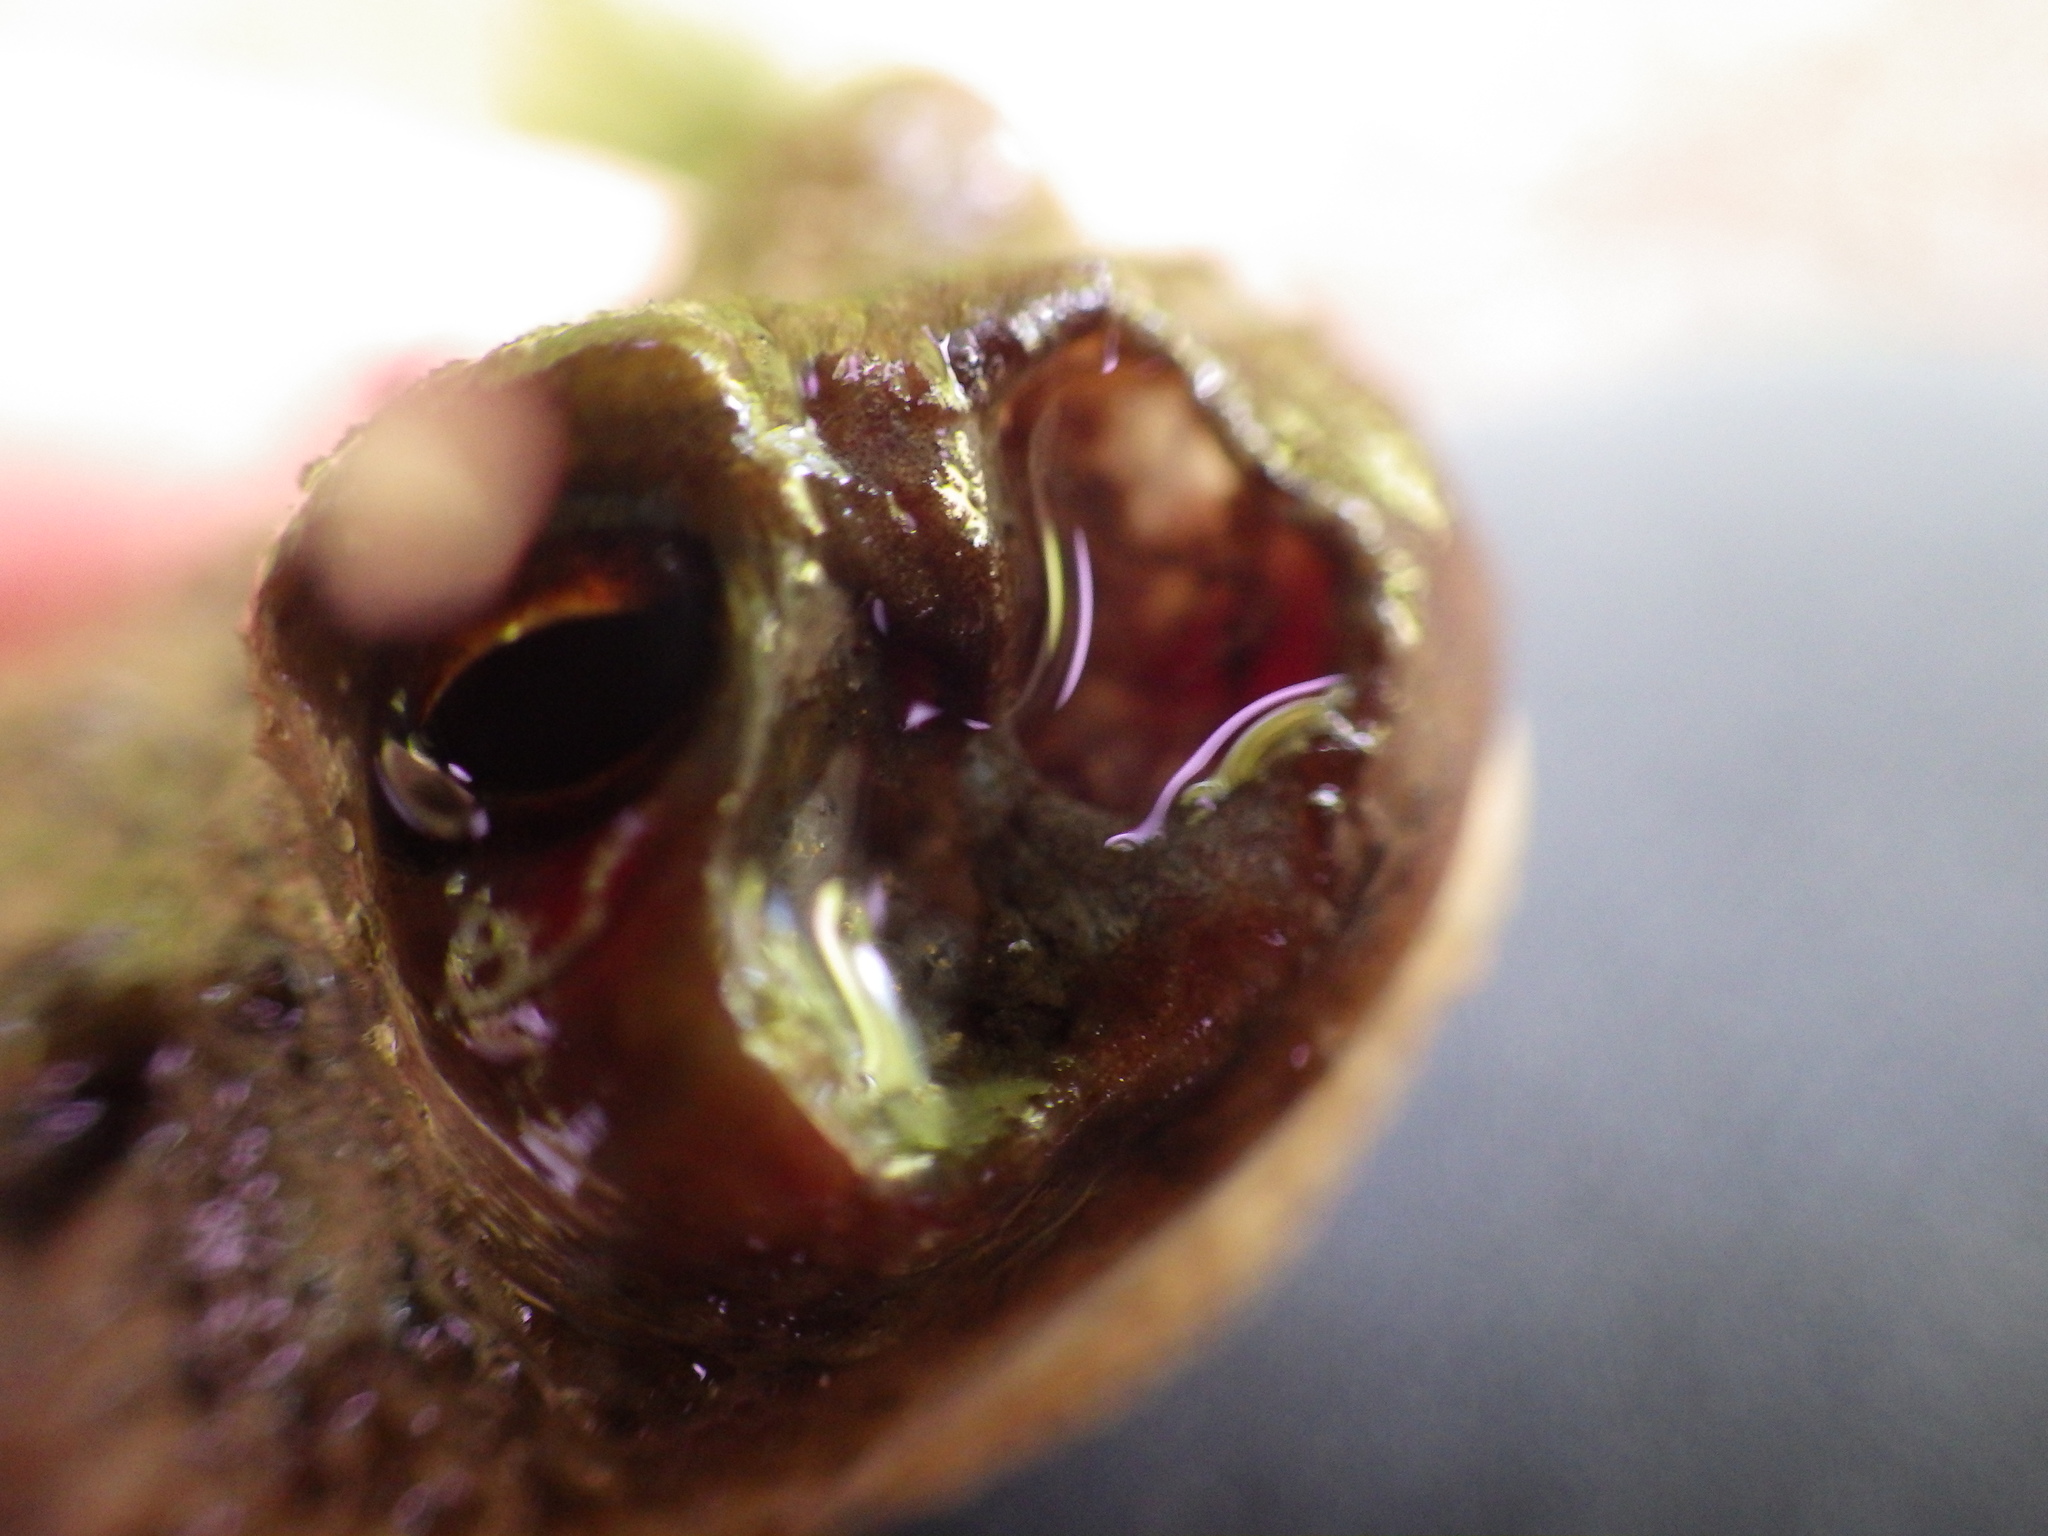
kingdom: Animalia
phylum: Chordata
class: Amphibia
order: Anura
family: Bufonidae
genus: Bufo
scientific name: Bufo bufo
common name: Common toad
